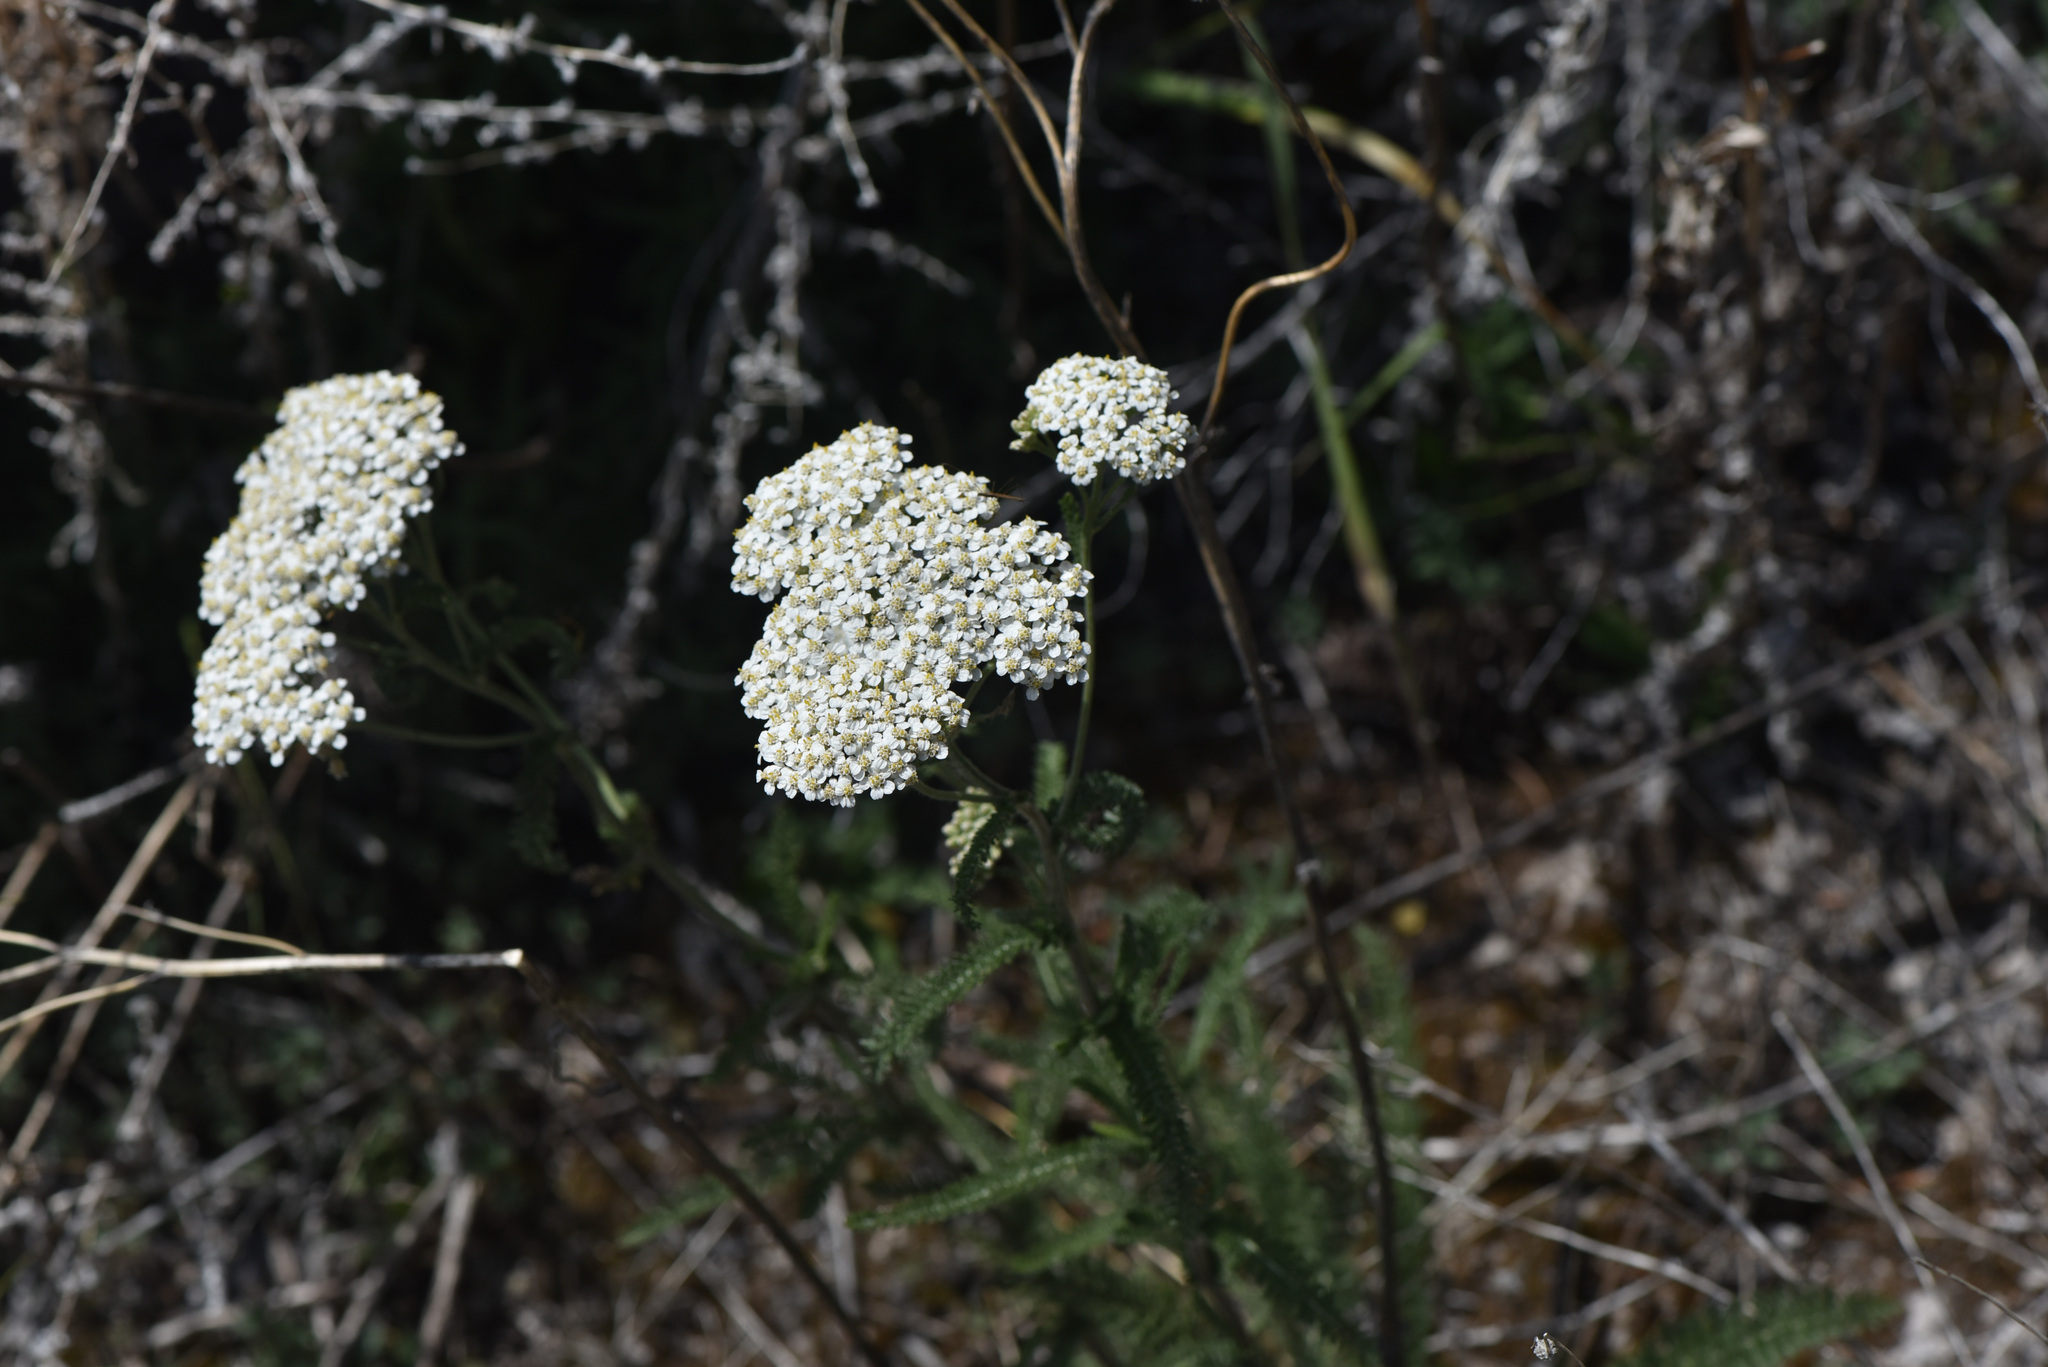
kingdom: Plantae
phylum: Tracheophyta
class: Magnoliopsida
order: Asterales
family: Asteraceae
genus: Achillea
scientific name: Achillea millefolium
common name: Yarrow
